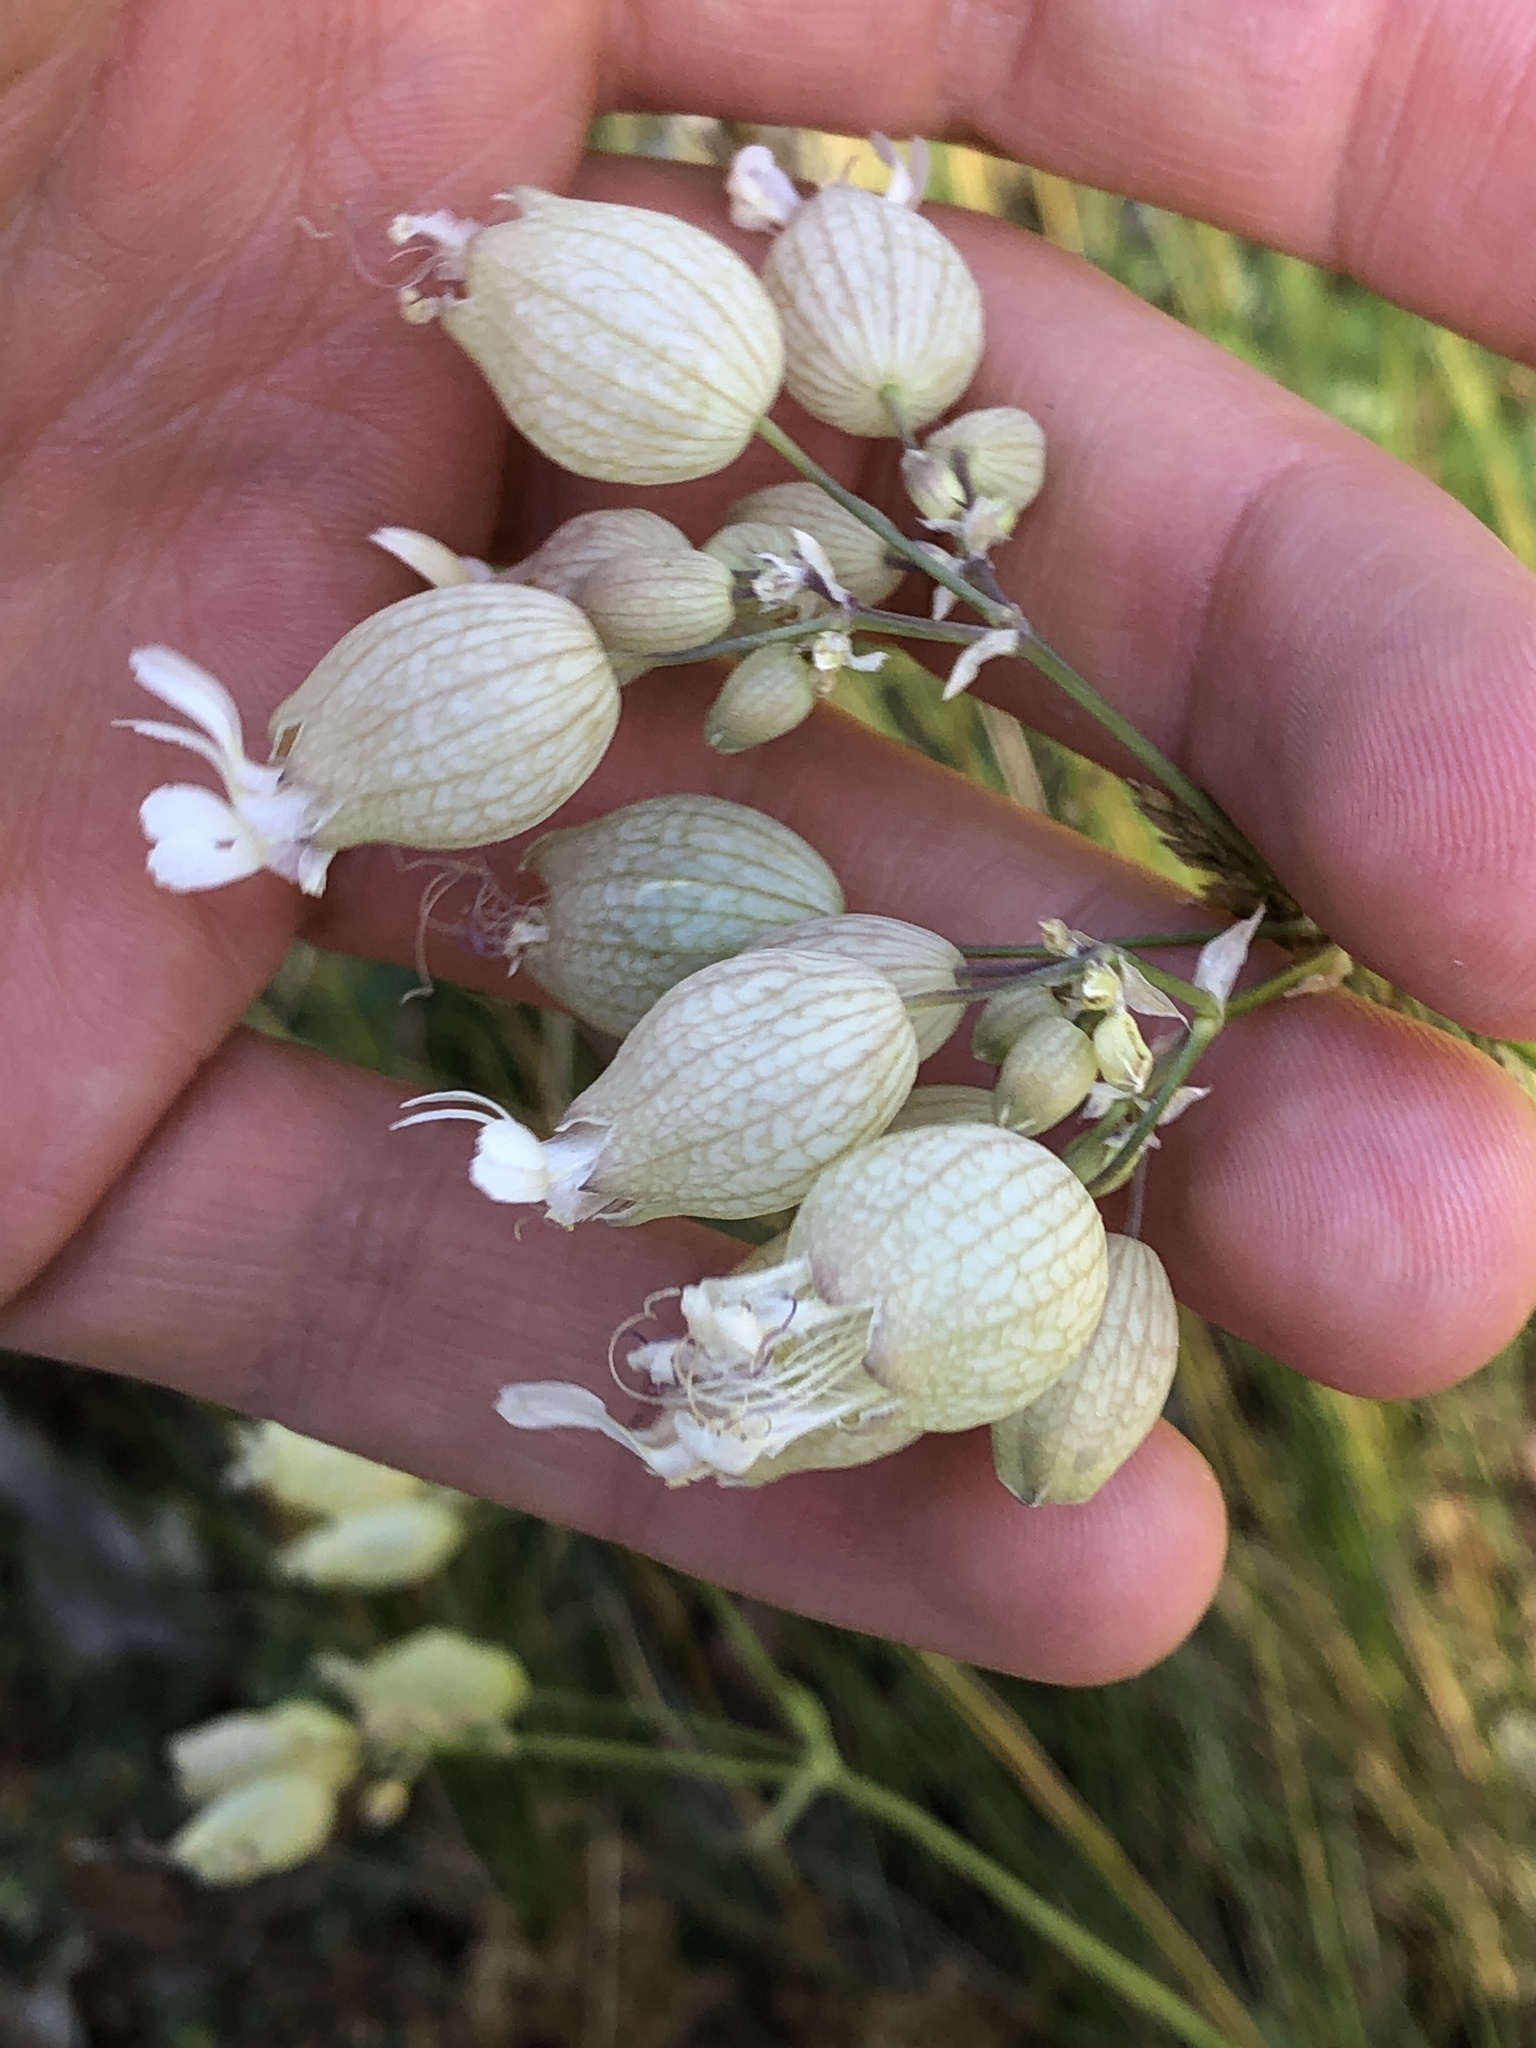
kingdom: Plantae
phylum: Tracheophyta
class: Magnoliopsida
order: Caryophyllales
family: Caryophyllaceae
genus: Silene
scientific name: Silene vulgaris
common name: Bladder campion
